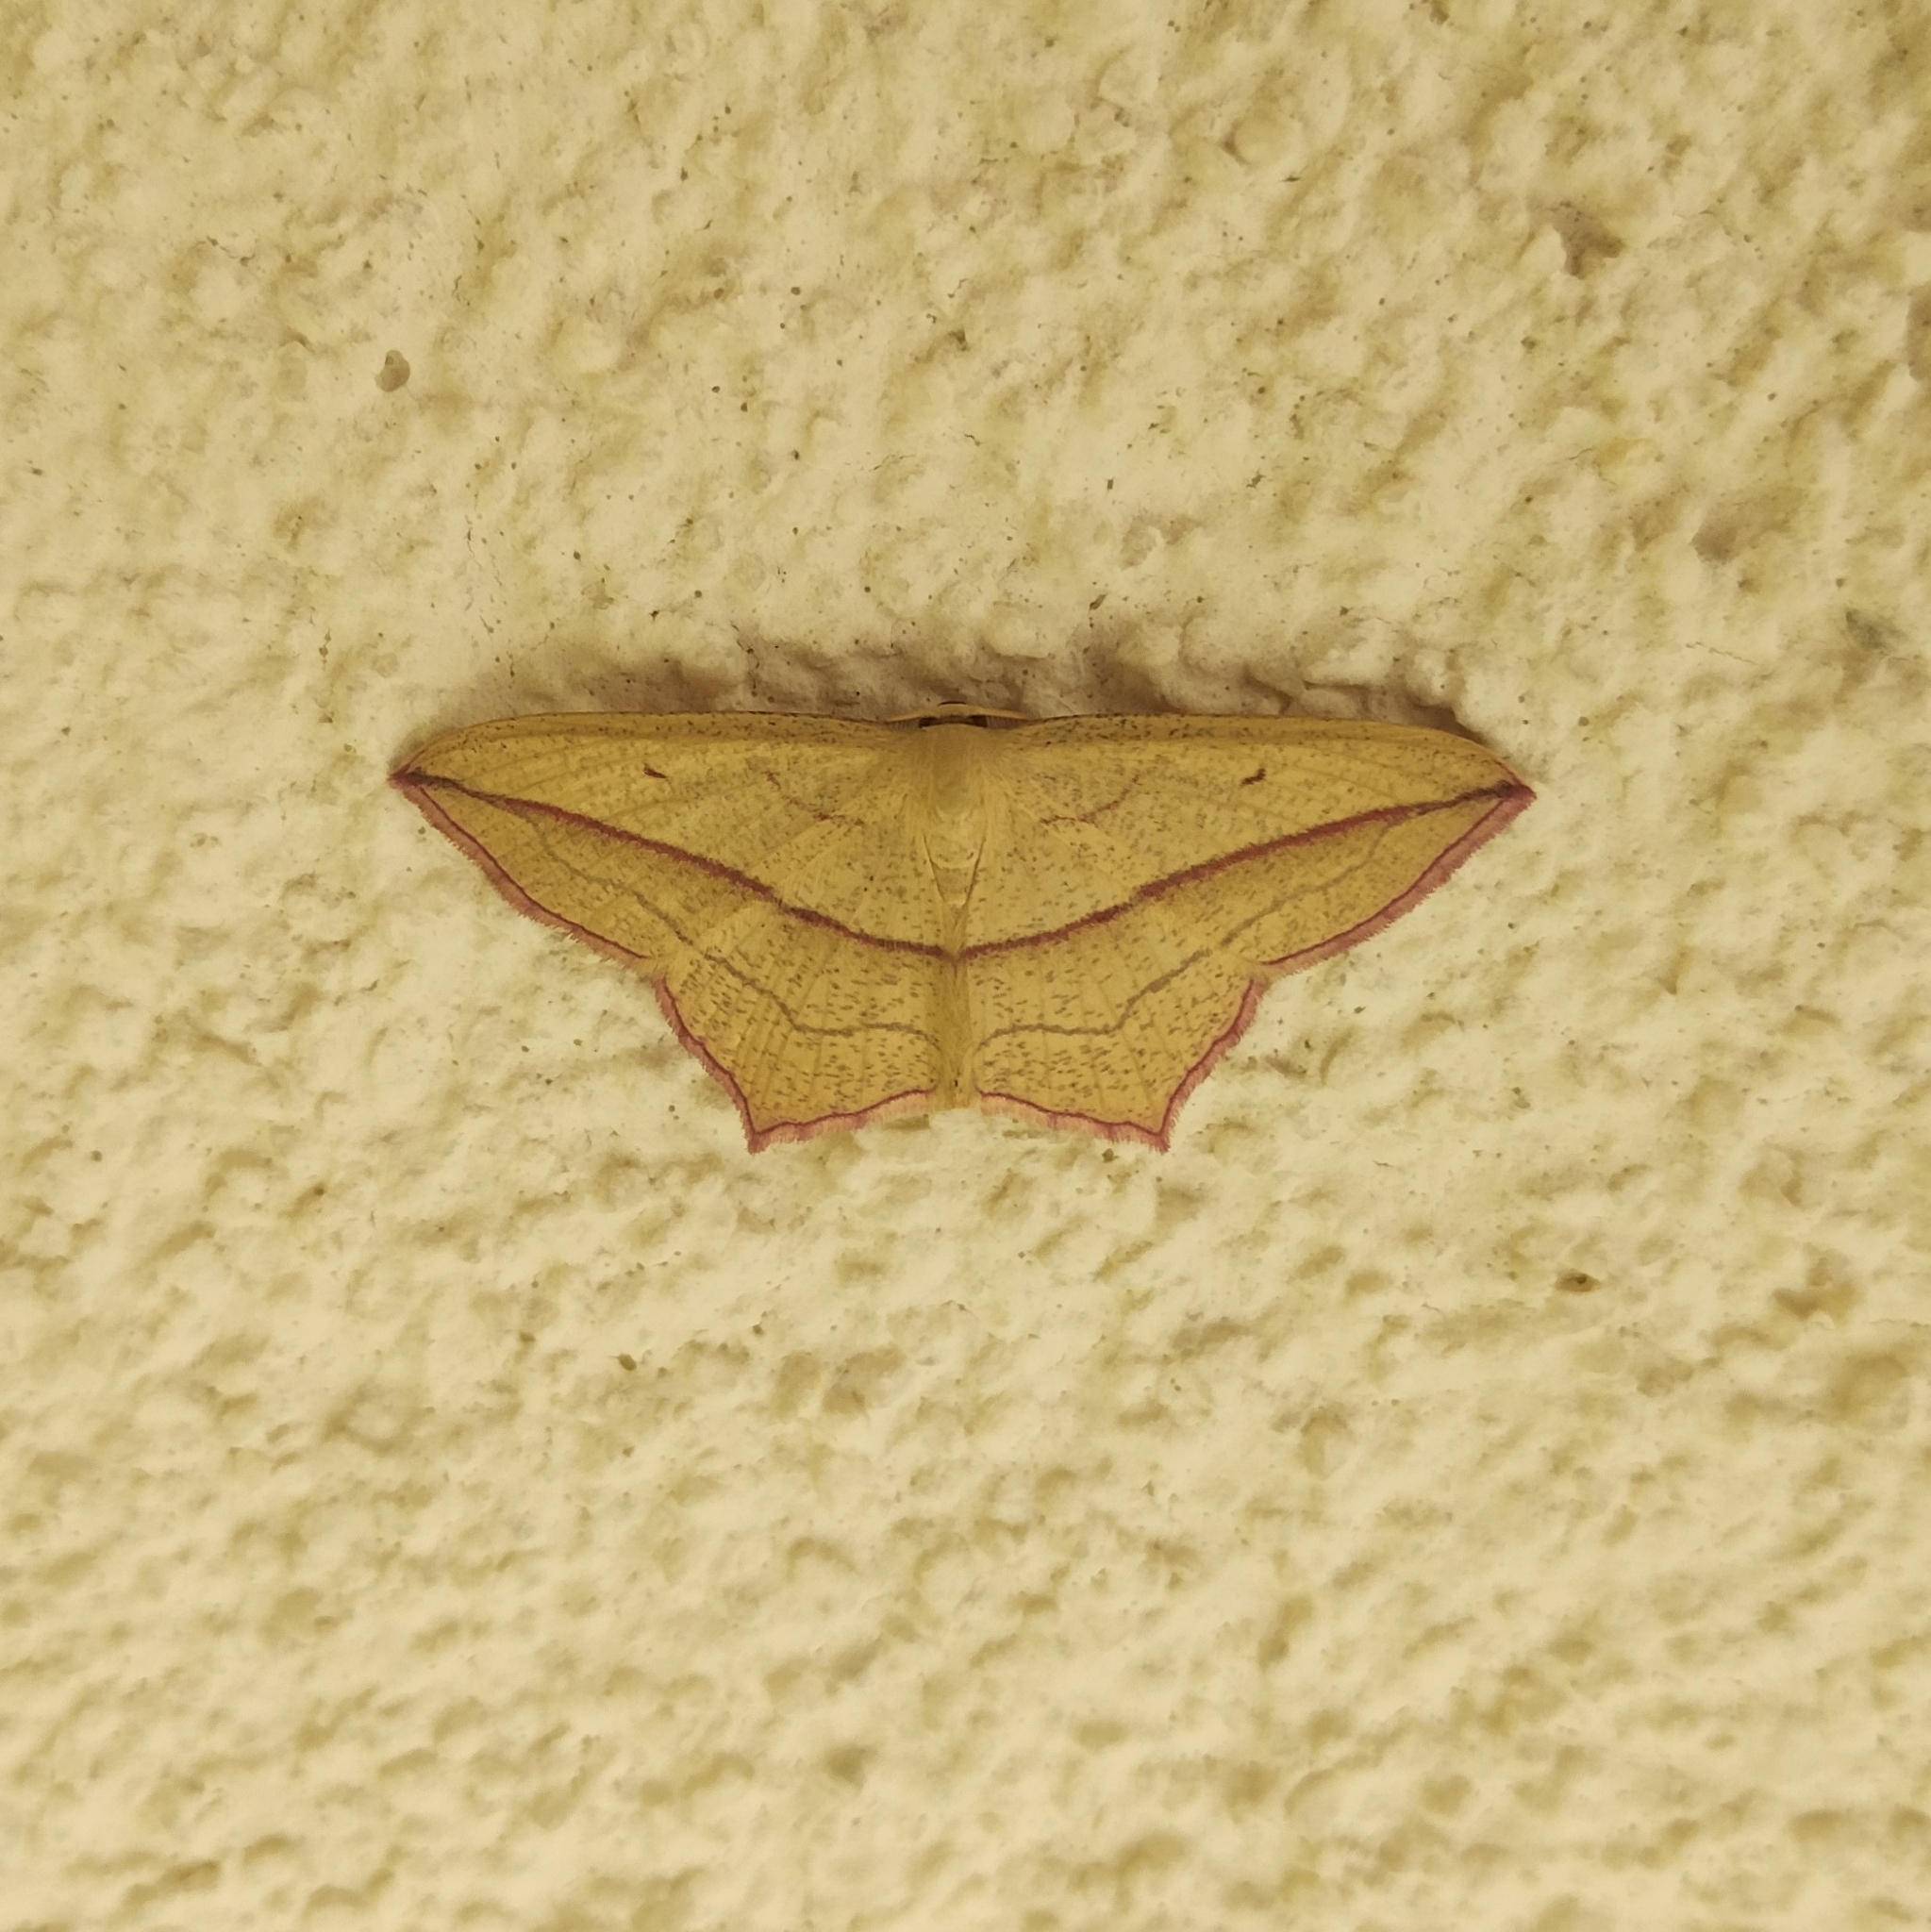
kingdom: Animalia
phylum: Arthropoda
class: Insecta
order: Lepidoptera
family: Geometridae
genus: Timandra
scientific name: Timandra comae
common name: Blood-vein
